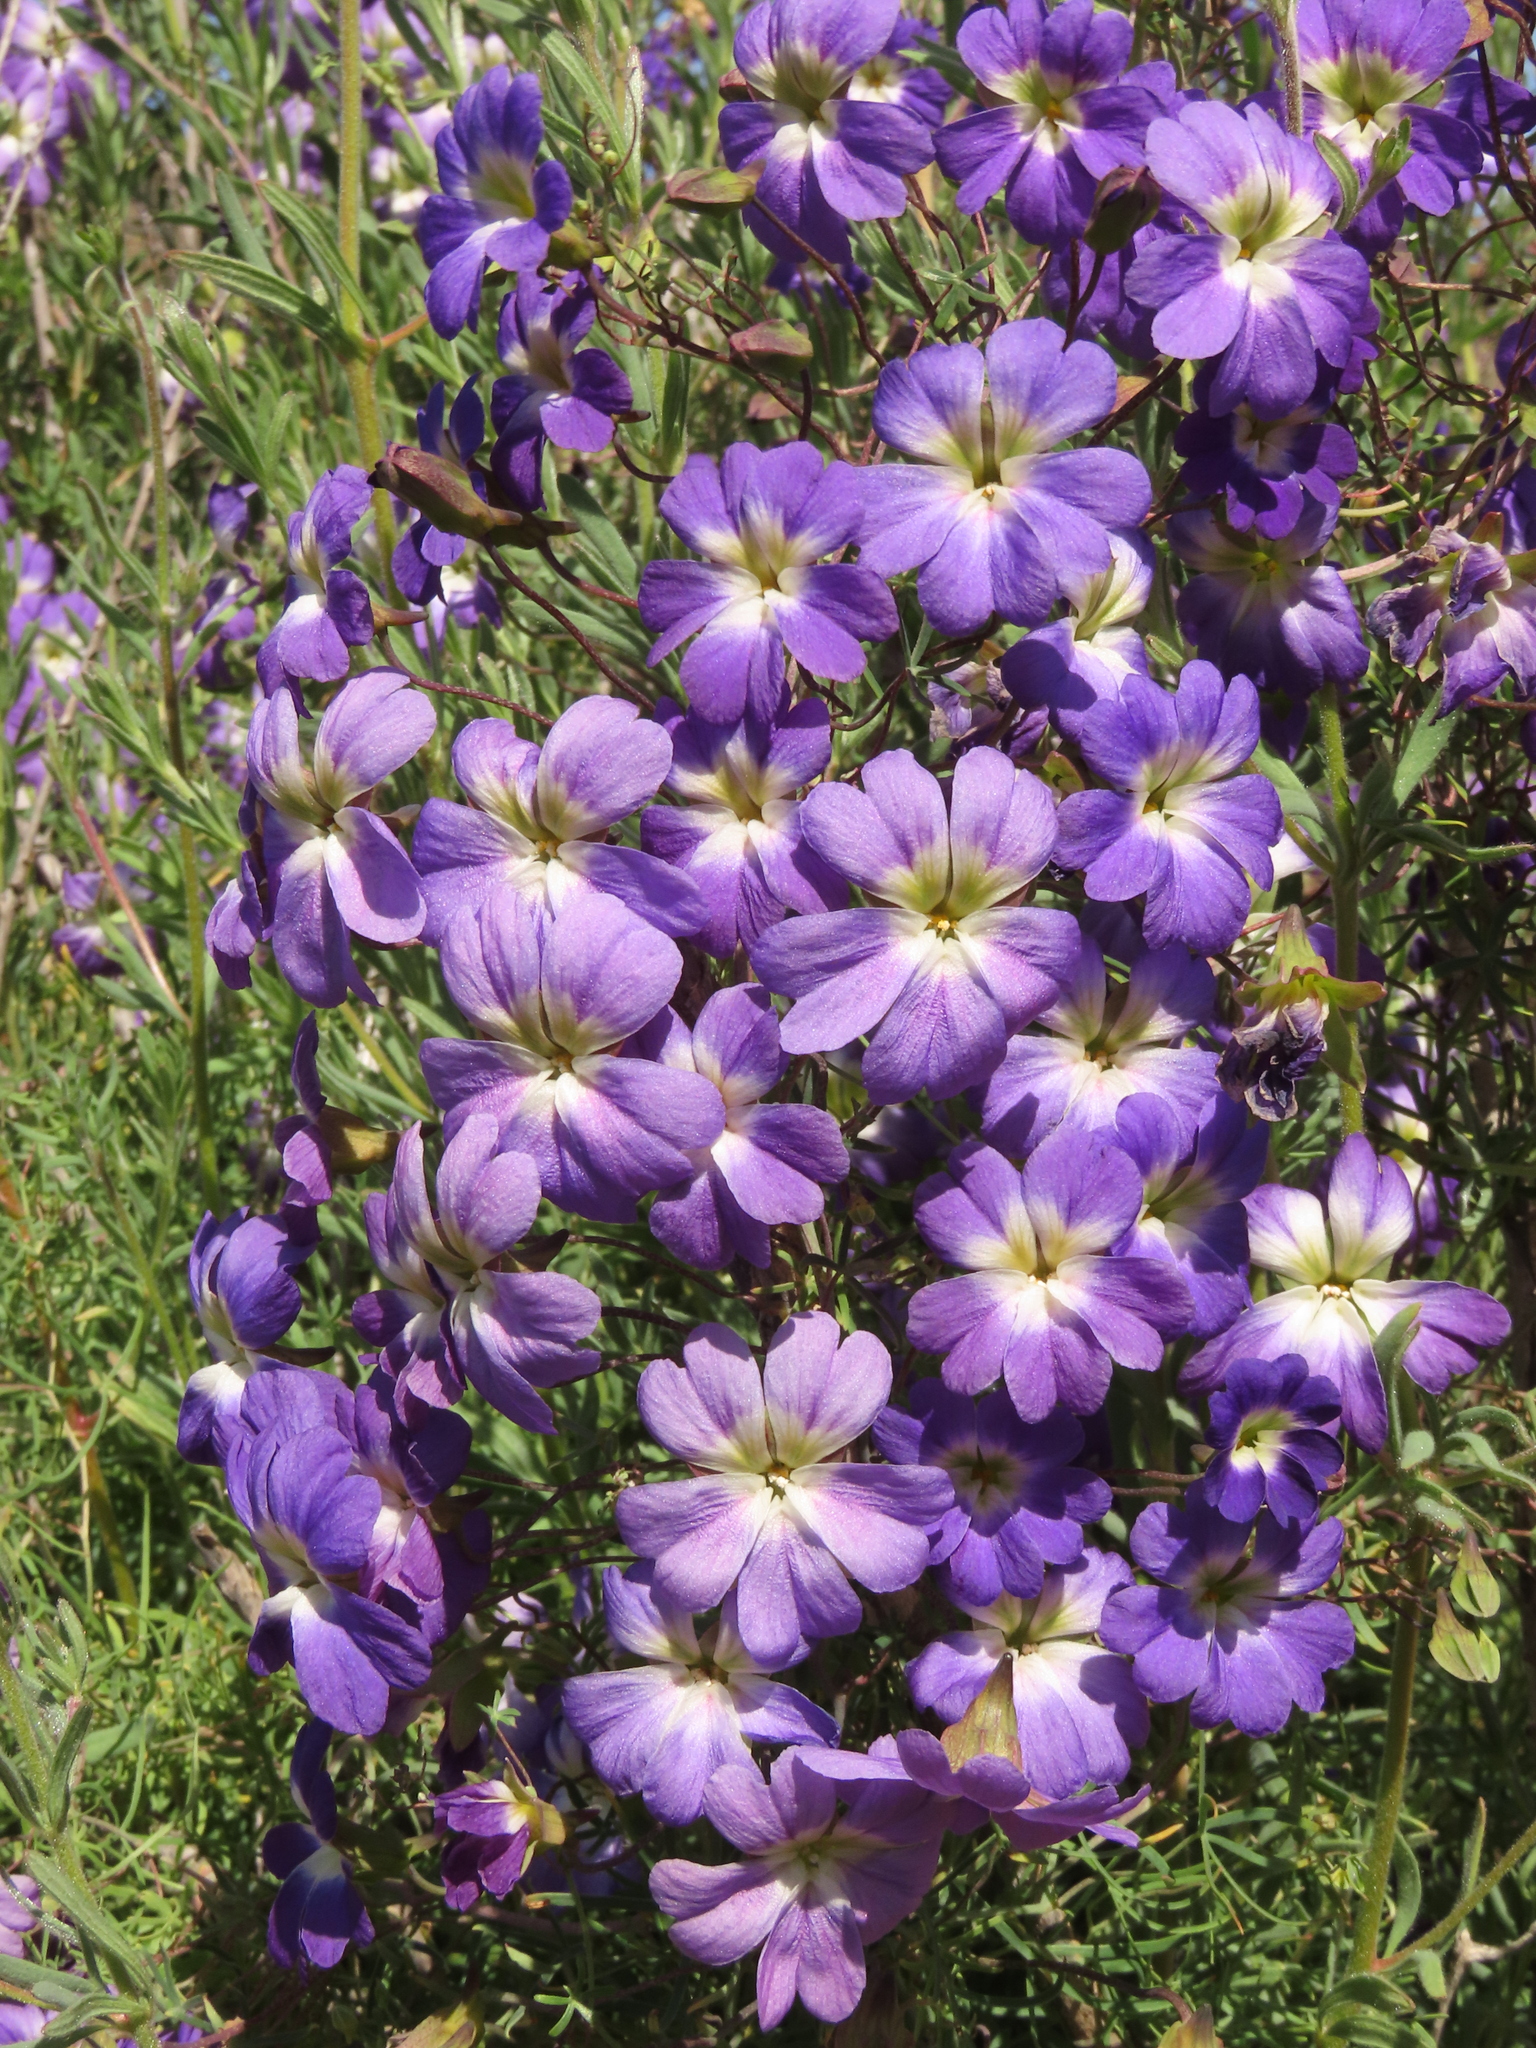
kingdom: Plantae
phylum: Tracheophyta
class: Magnoliopsida
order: Brassicales
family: Tropaeolaceae
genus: Tropaeolum
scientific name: Tropaeolum azureum
